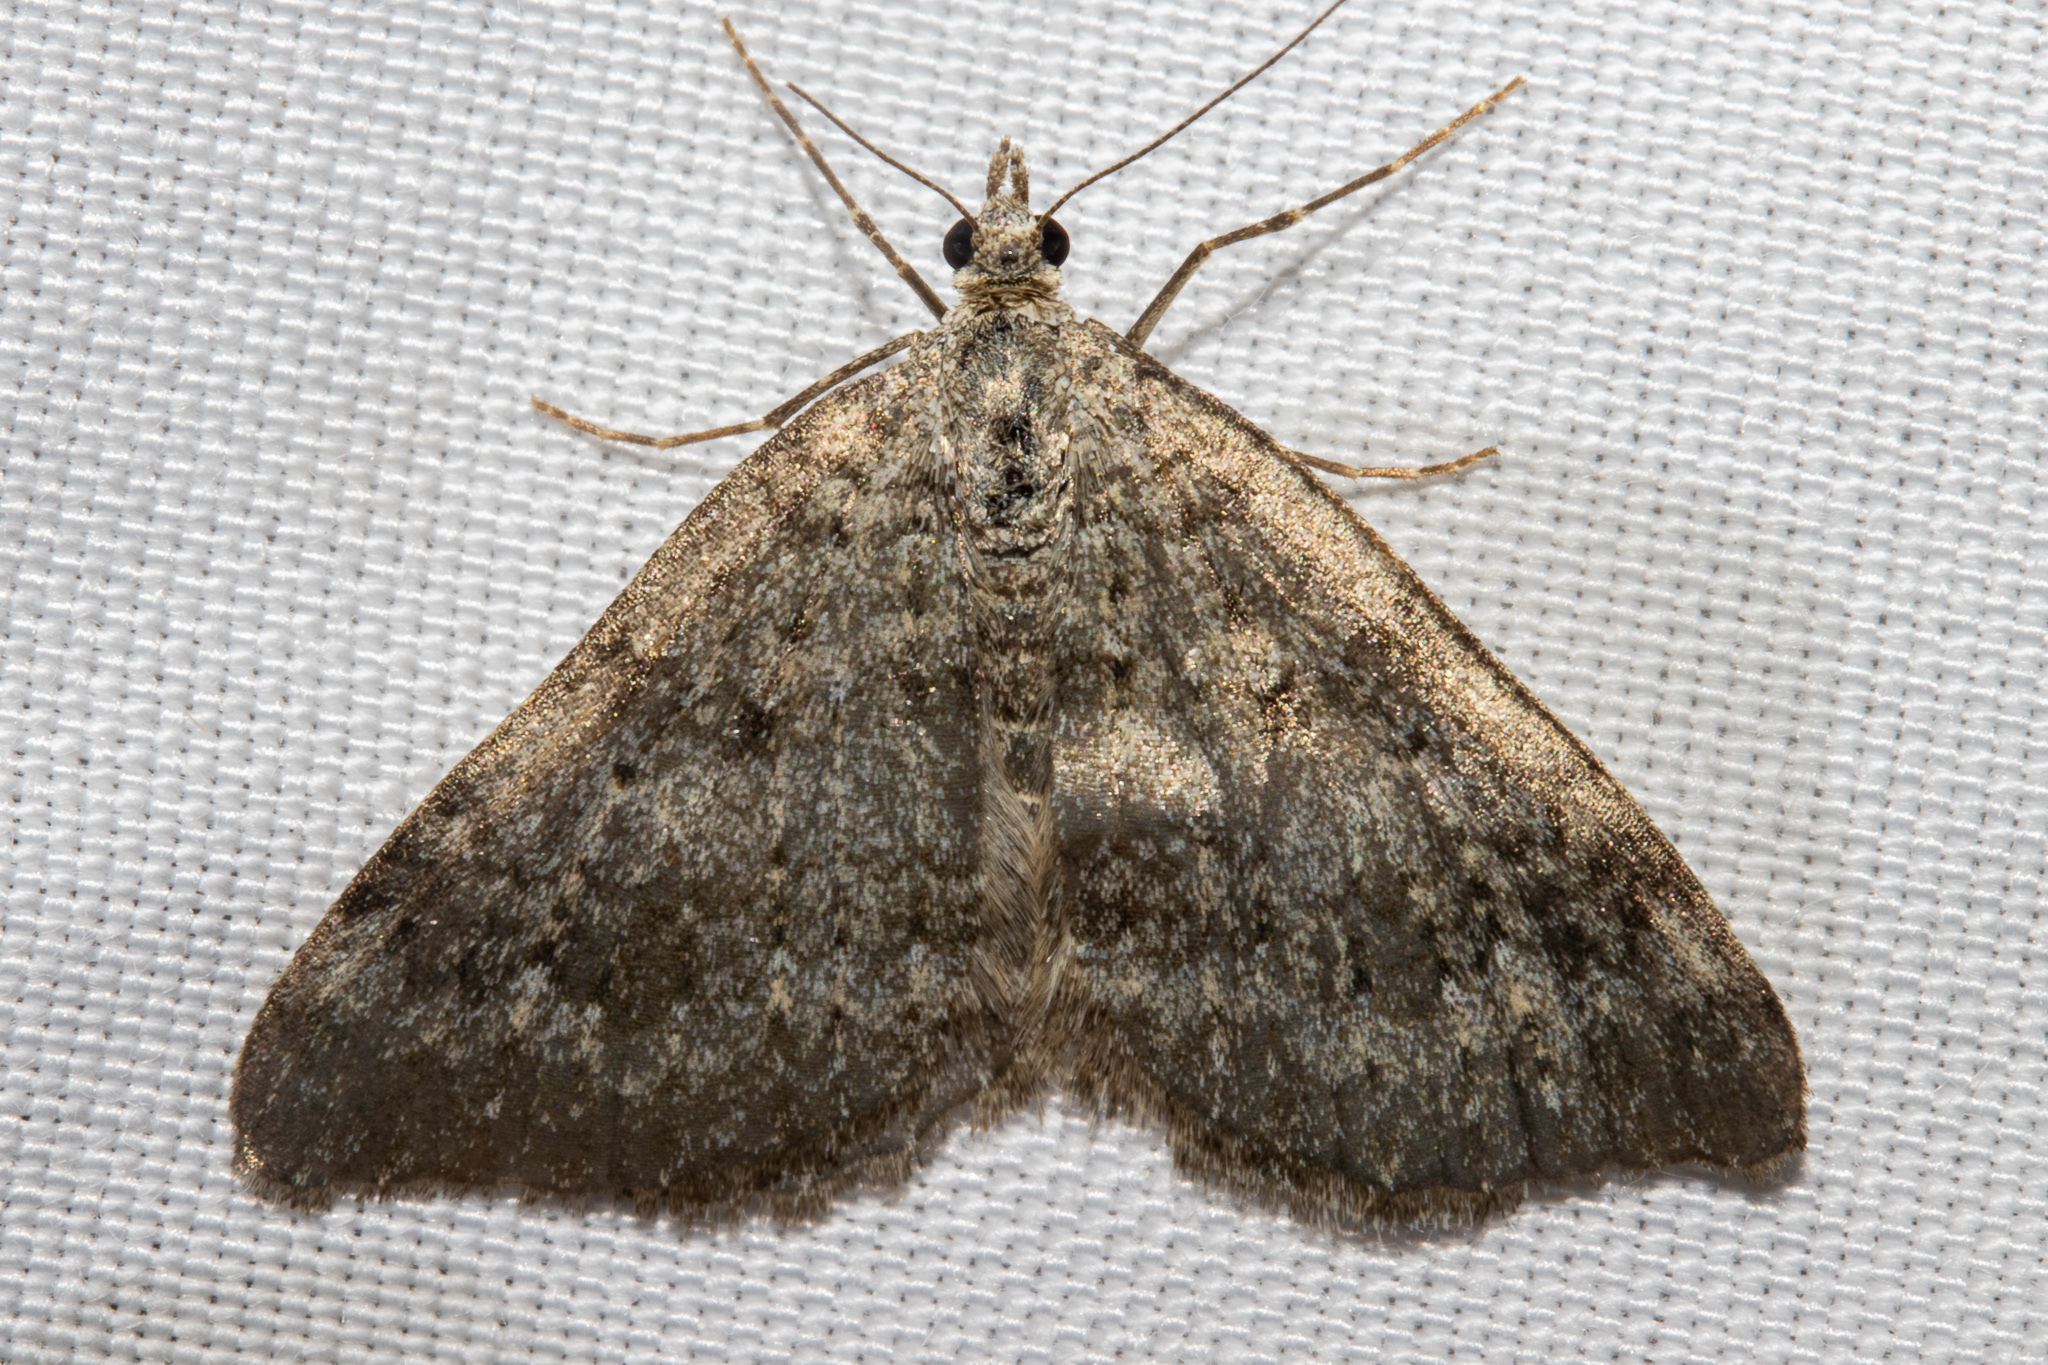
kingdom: Animalia
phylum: Arthropoda
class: Insecta
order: Lepidoptera
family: Geometridae
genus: Helastia
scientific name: Helastia corcularia
